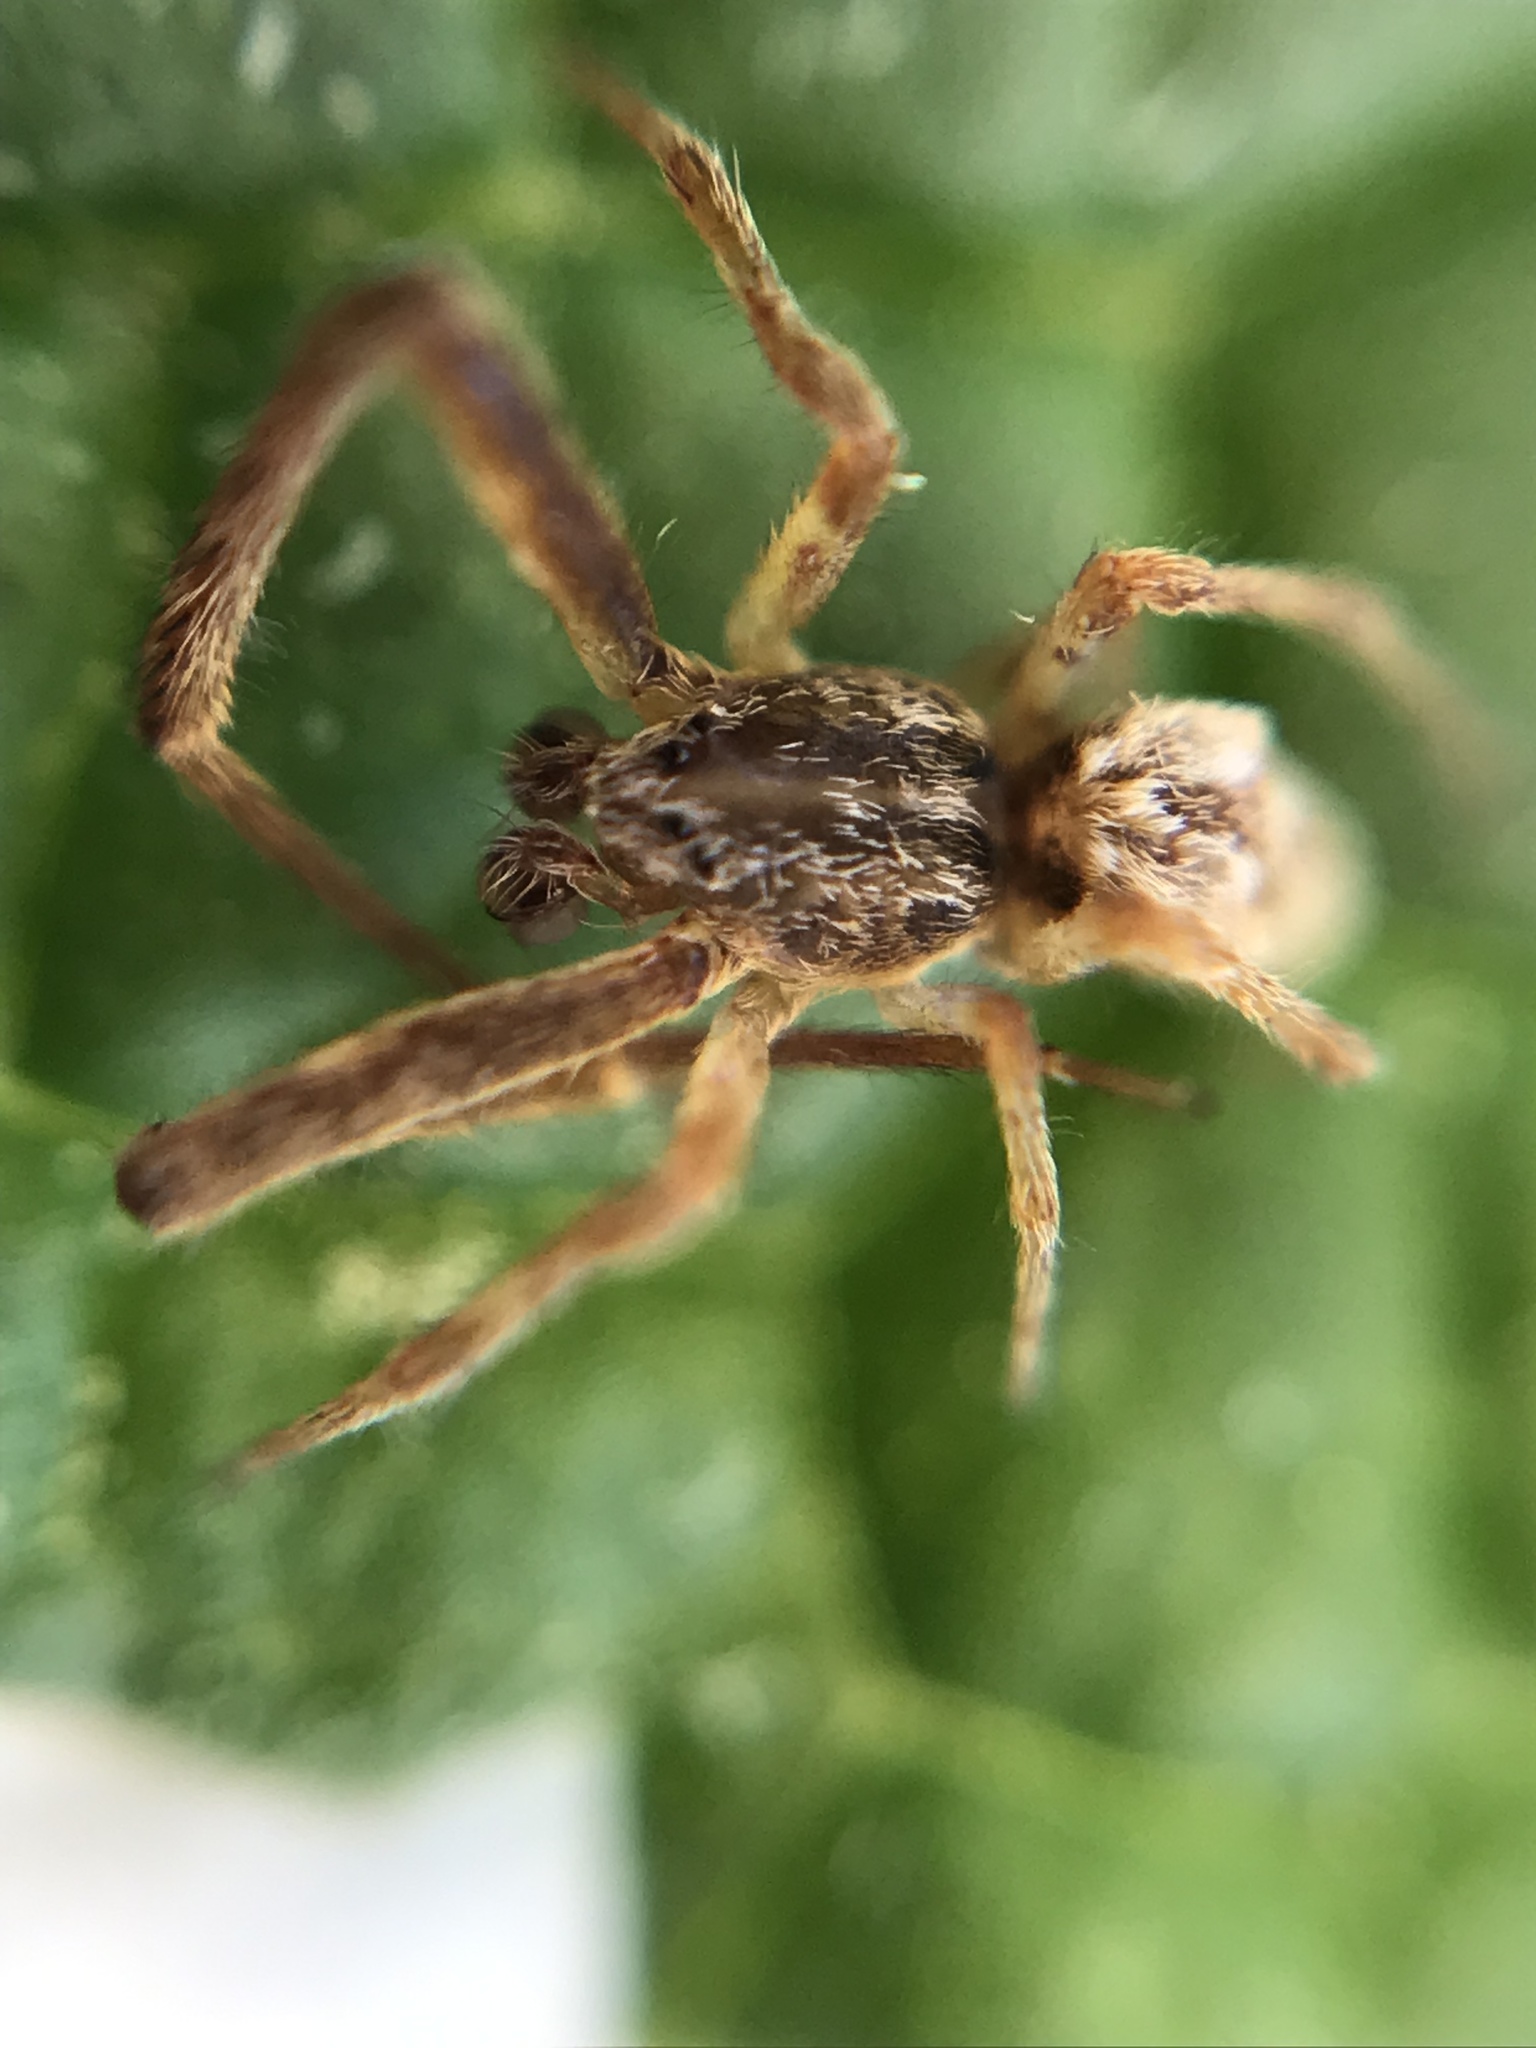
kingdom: Animalia
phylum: Arthropoda
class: Arachnida
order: Araneae
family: Uloboridae
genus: Uloborus
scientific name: Uloborus glomosus
